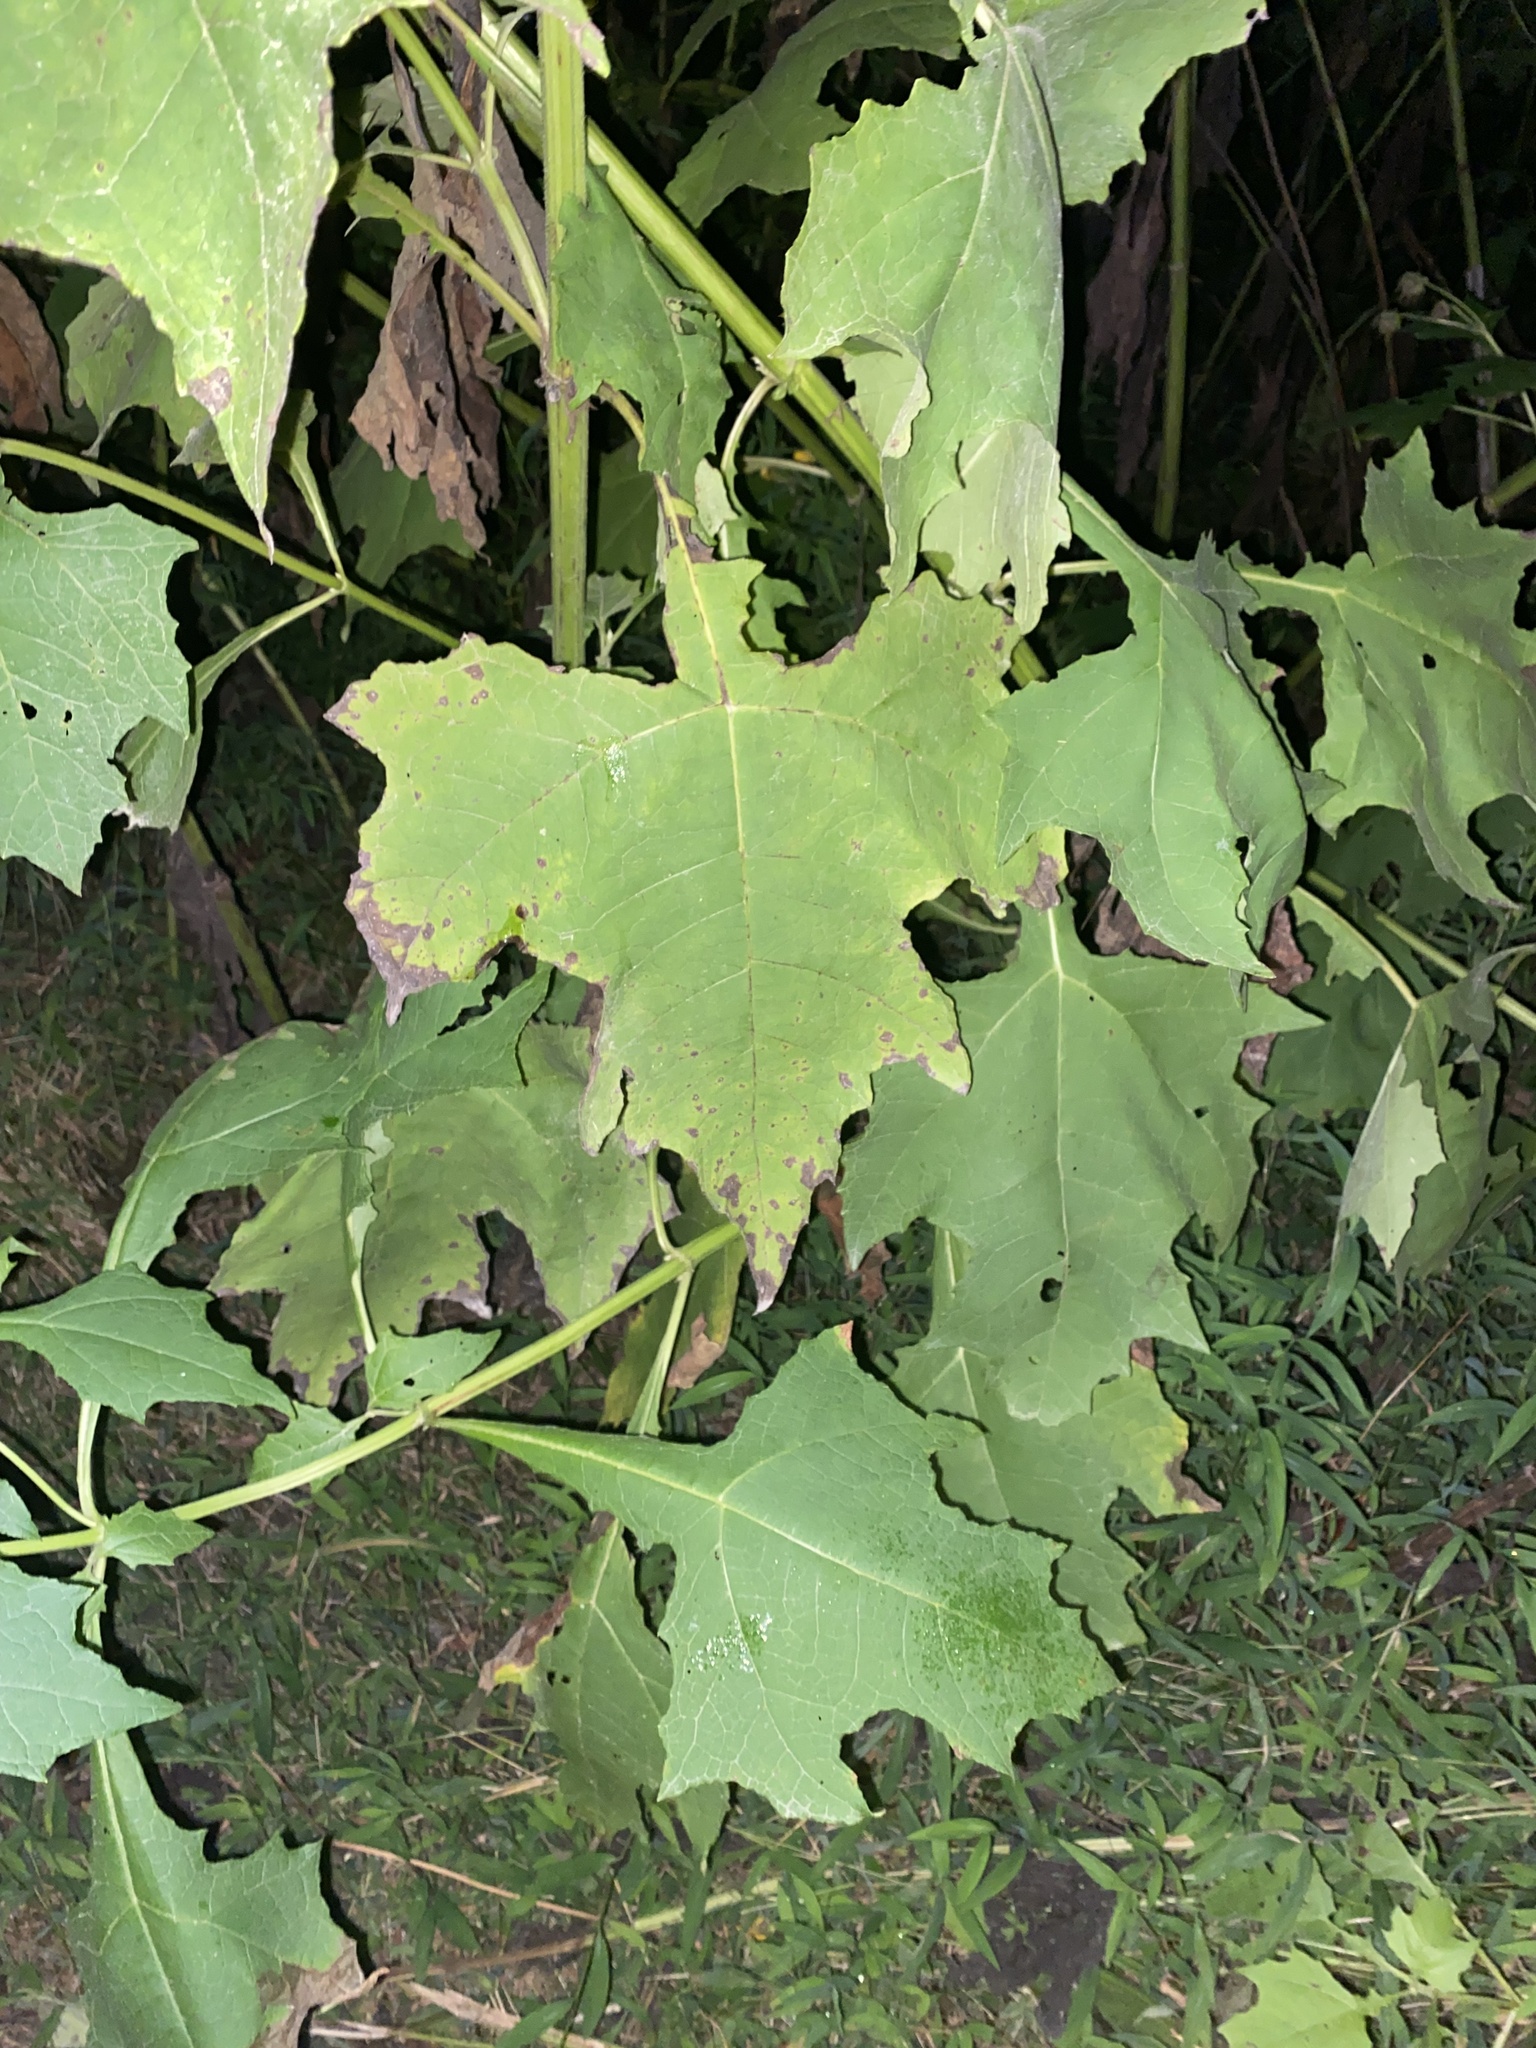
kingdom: Plantae
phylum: Tracheophyta
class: Magnoliopsida
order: Asterales
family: Asteraceae
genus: Smallanthus
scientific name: Smallanthus uvedalia
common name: Bear's-foot
